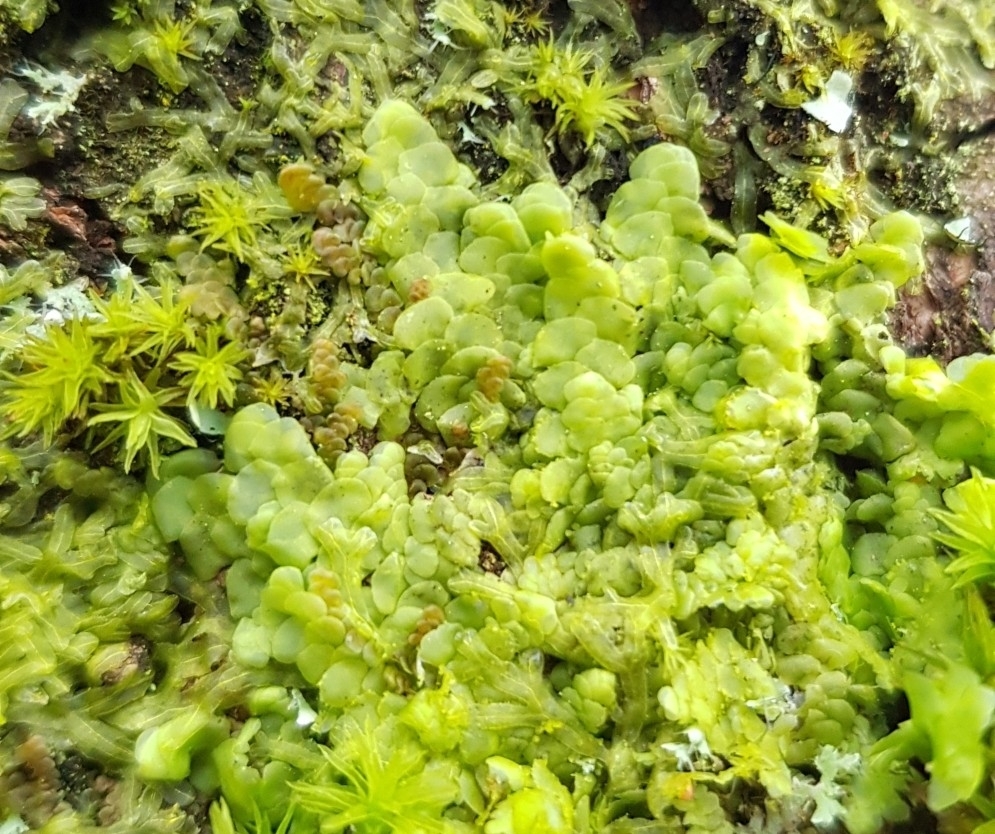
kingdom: Plantae
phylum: Marchantiophyta
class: Jungermanniopsida
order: Porellales
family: Radulaceae
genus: Radula
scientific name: Radula complanata
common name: Flat-leaved scalewort
